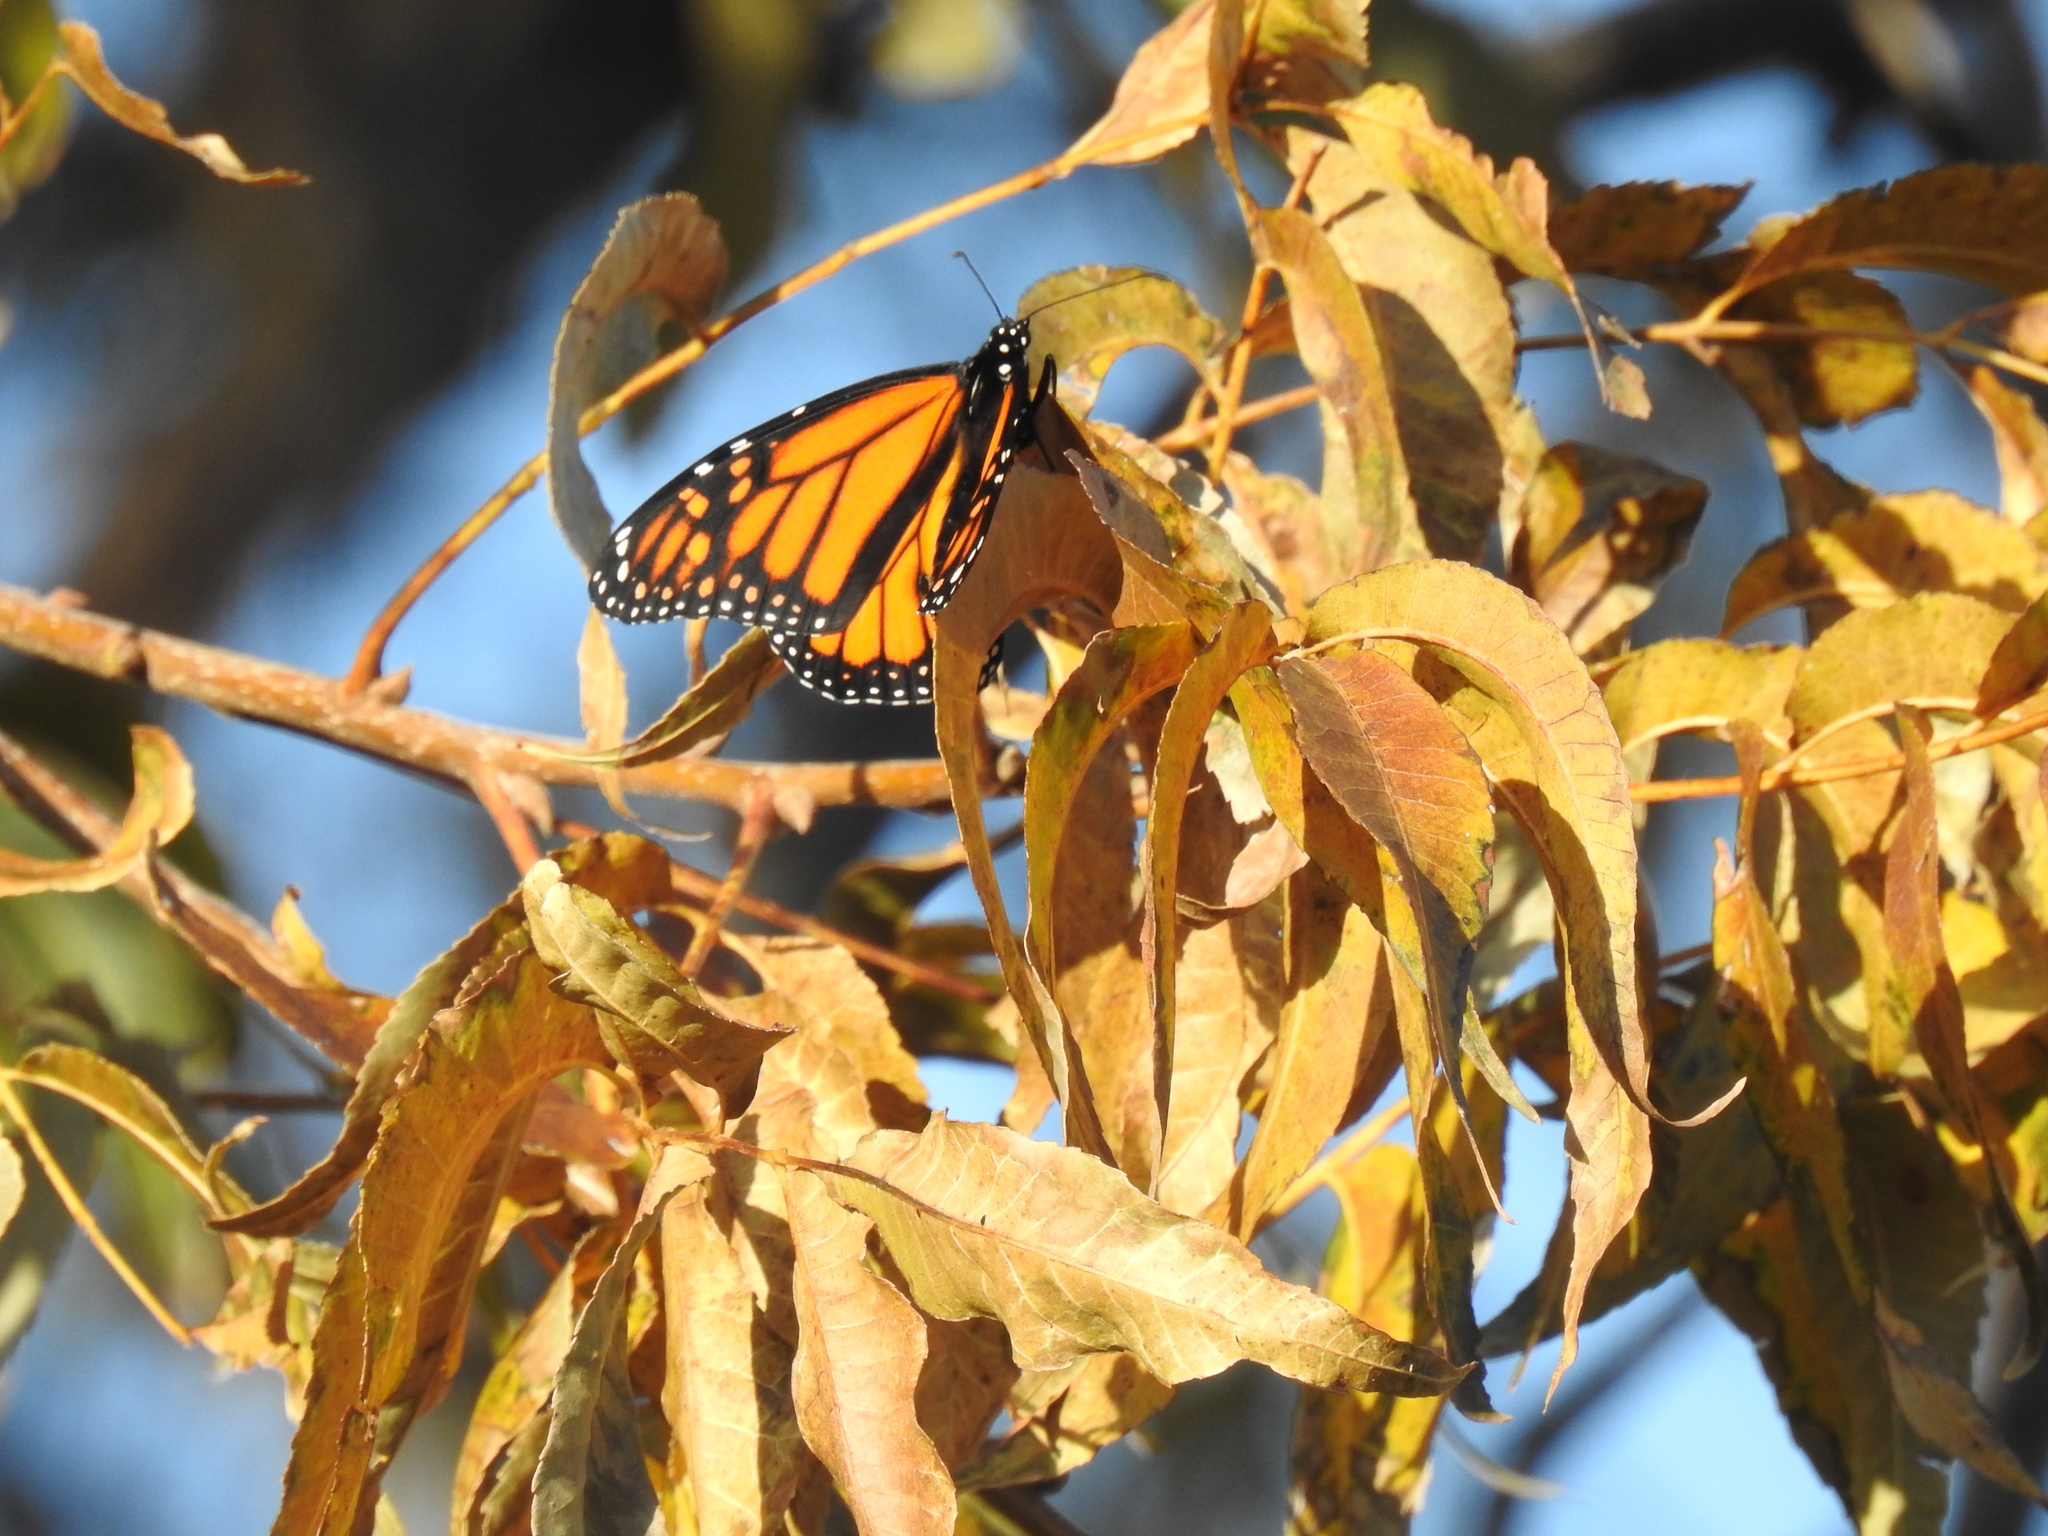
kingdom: Animalia
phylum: Arthropoda
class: Insecta
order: Lepidoptera
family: Nymphalidae
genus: Danaus
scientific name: Danaus plexippus
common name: Monarch
